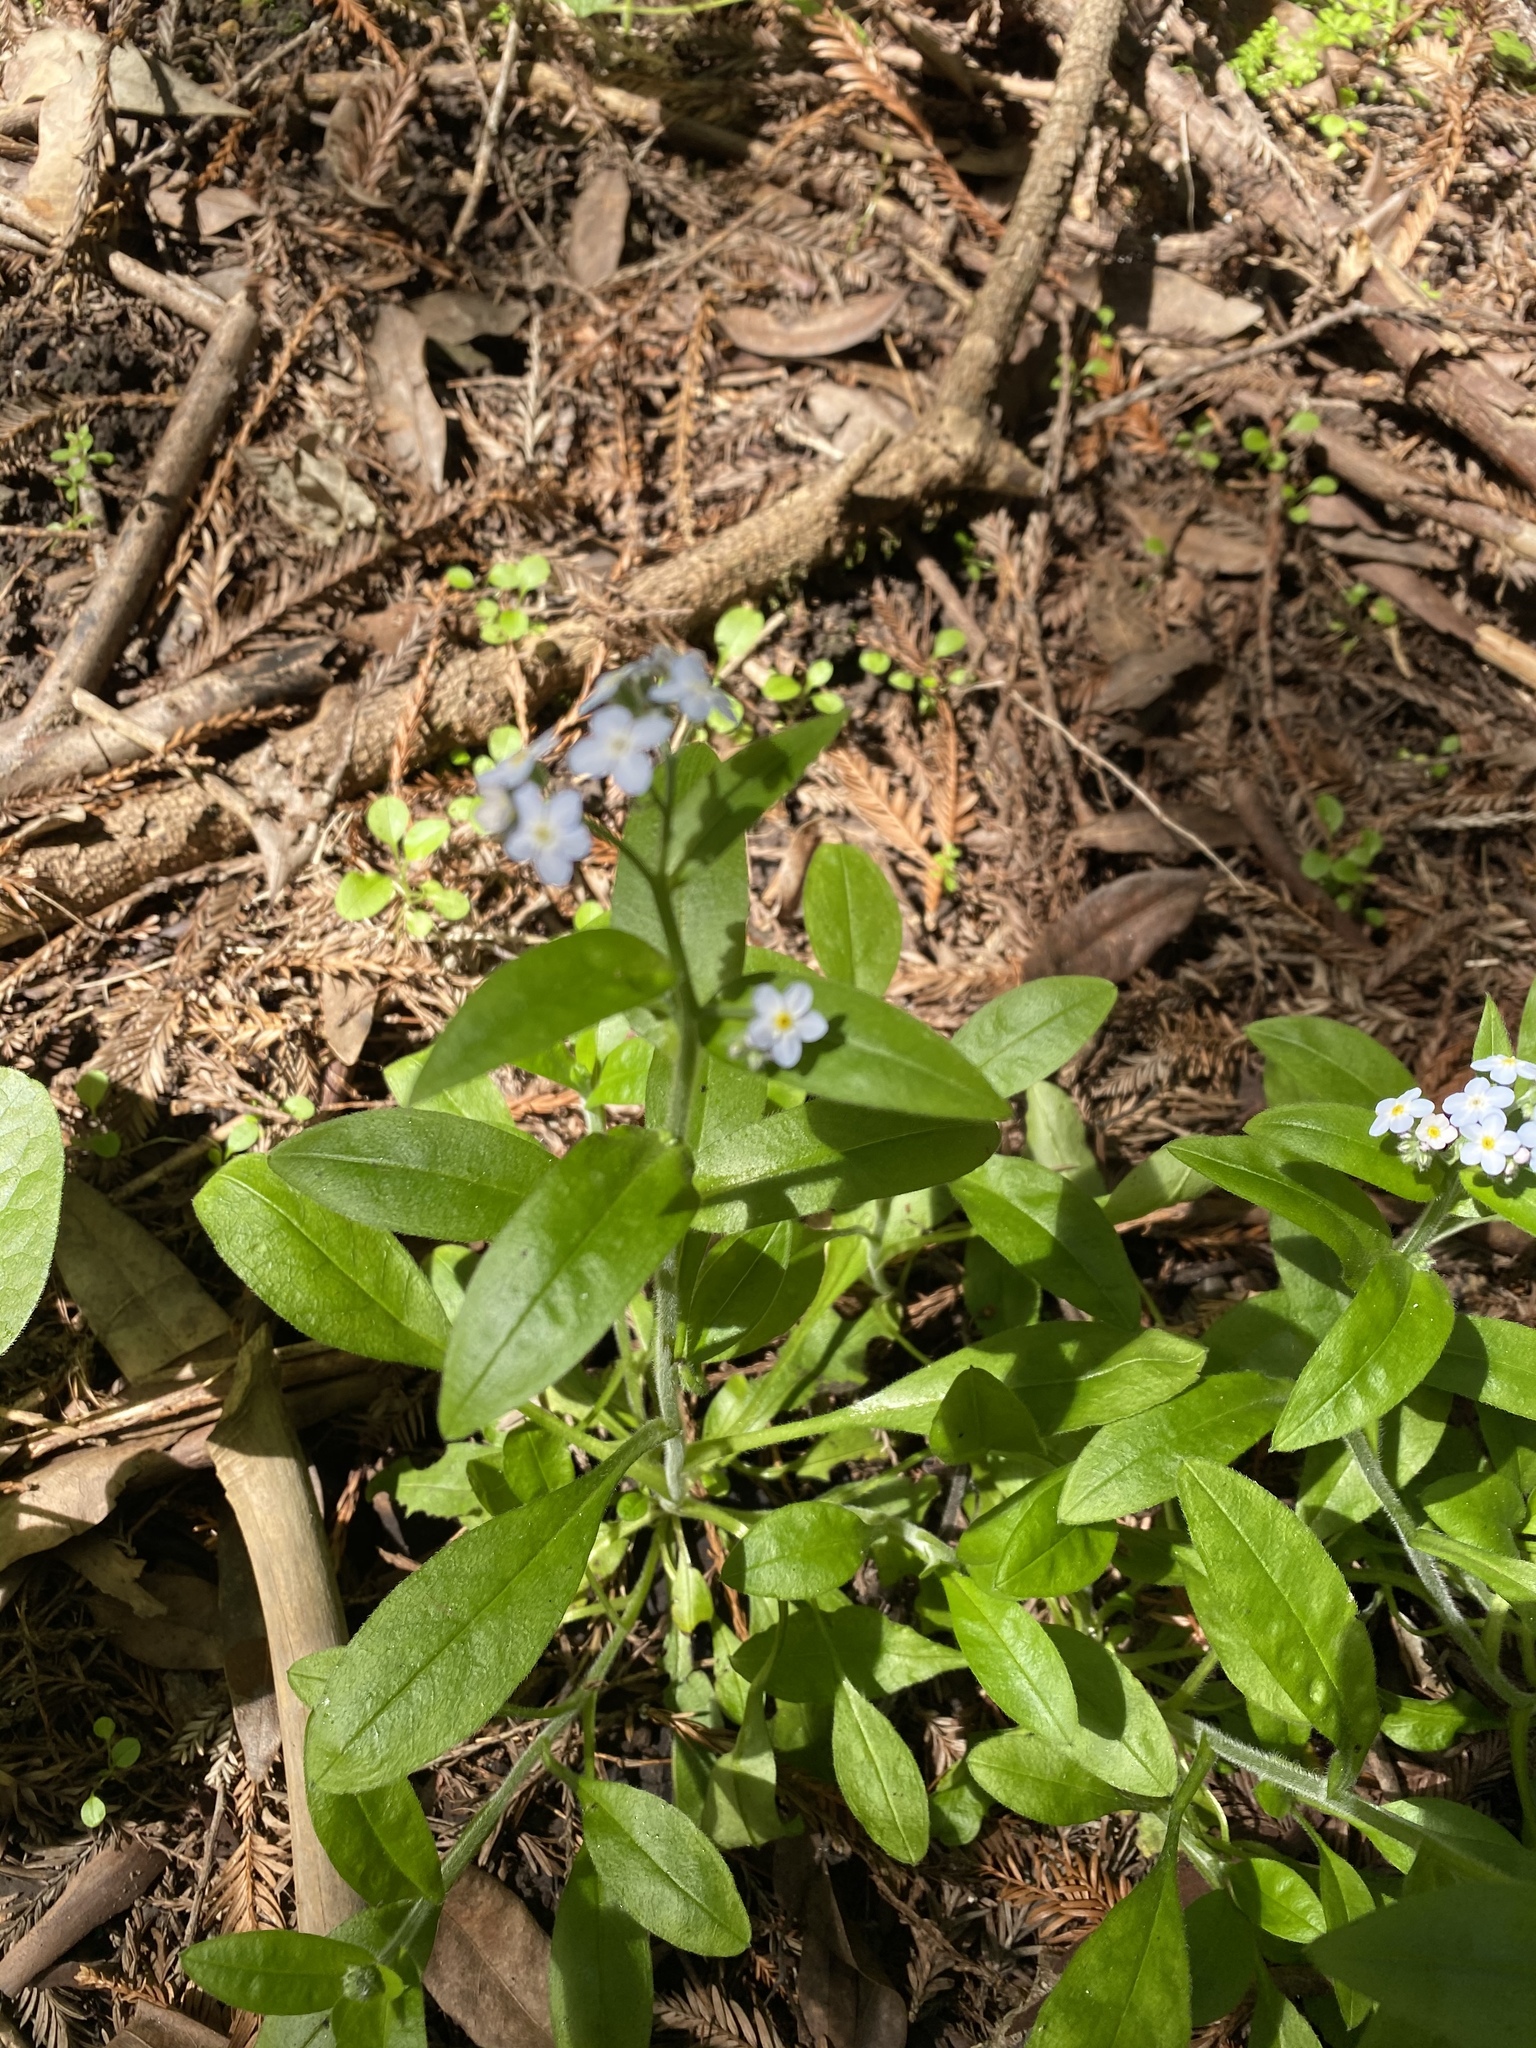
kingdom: Plantae
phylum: Tracheophyta
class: Magnoliopsida
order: Boraginales
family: Boraginaceae
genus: Myosotis
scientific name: Myosotis latifolia
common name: Broadleaf forget-me-not
